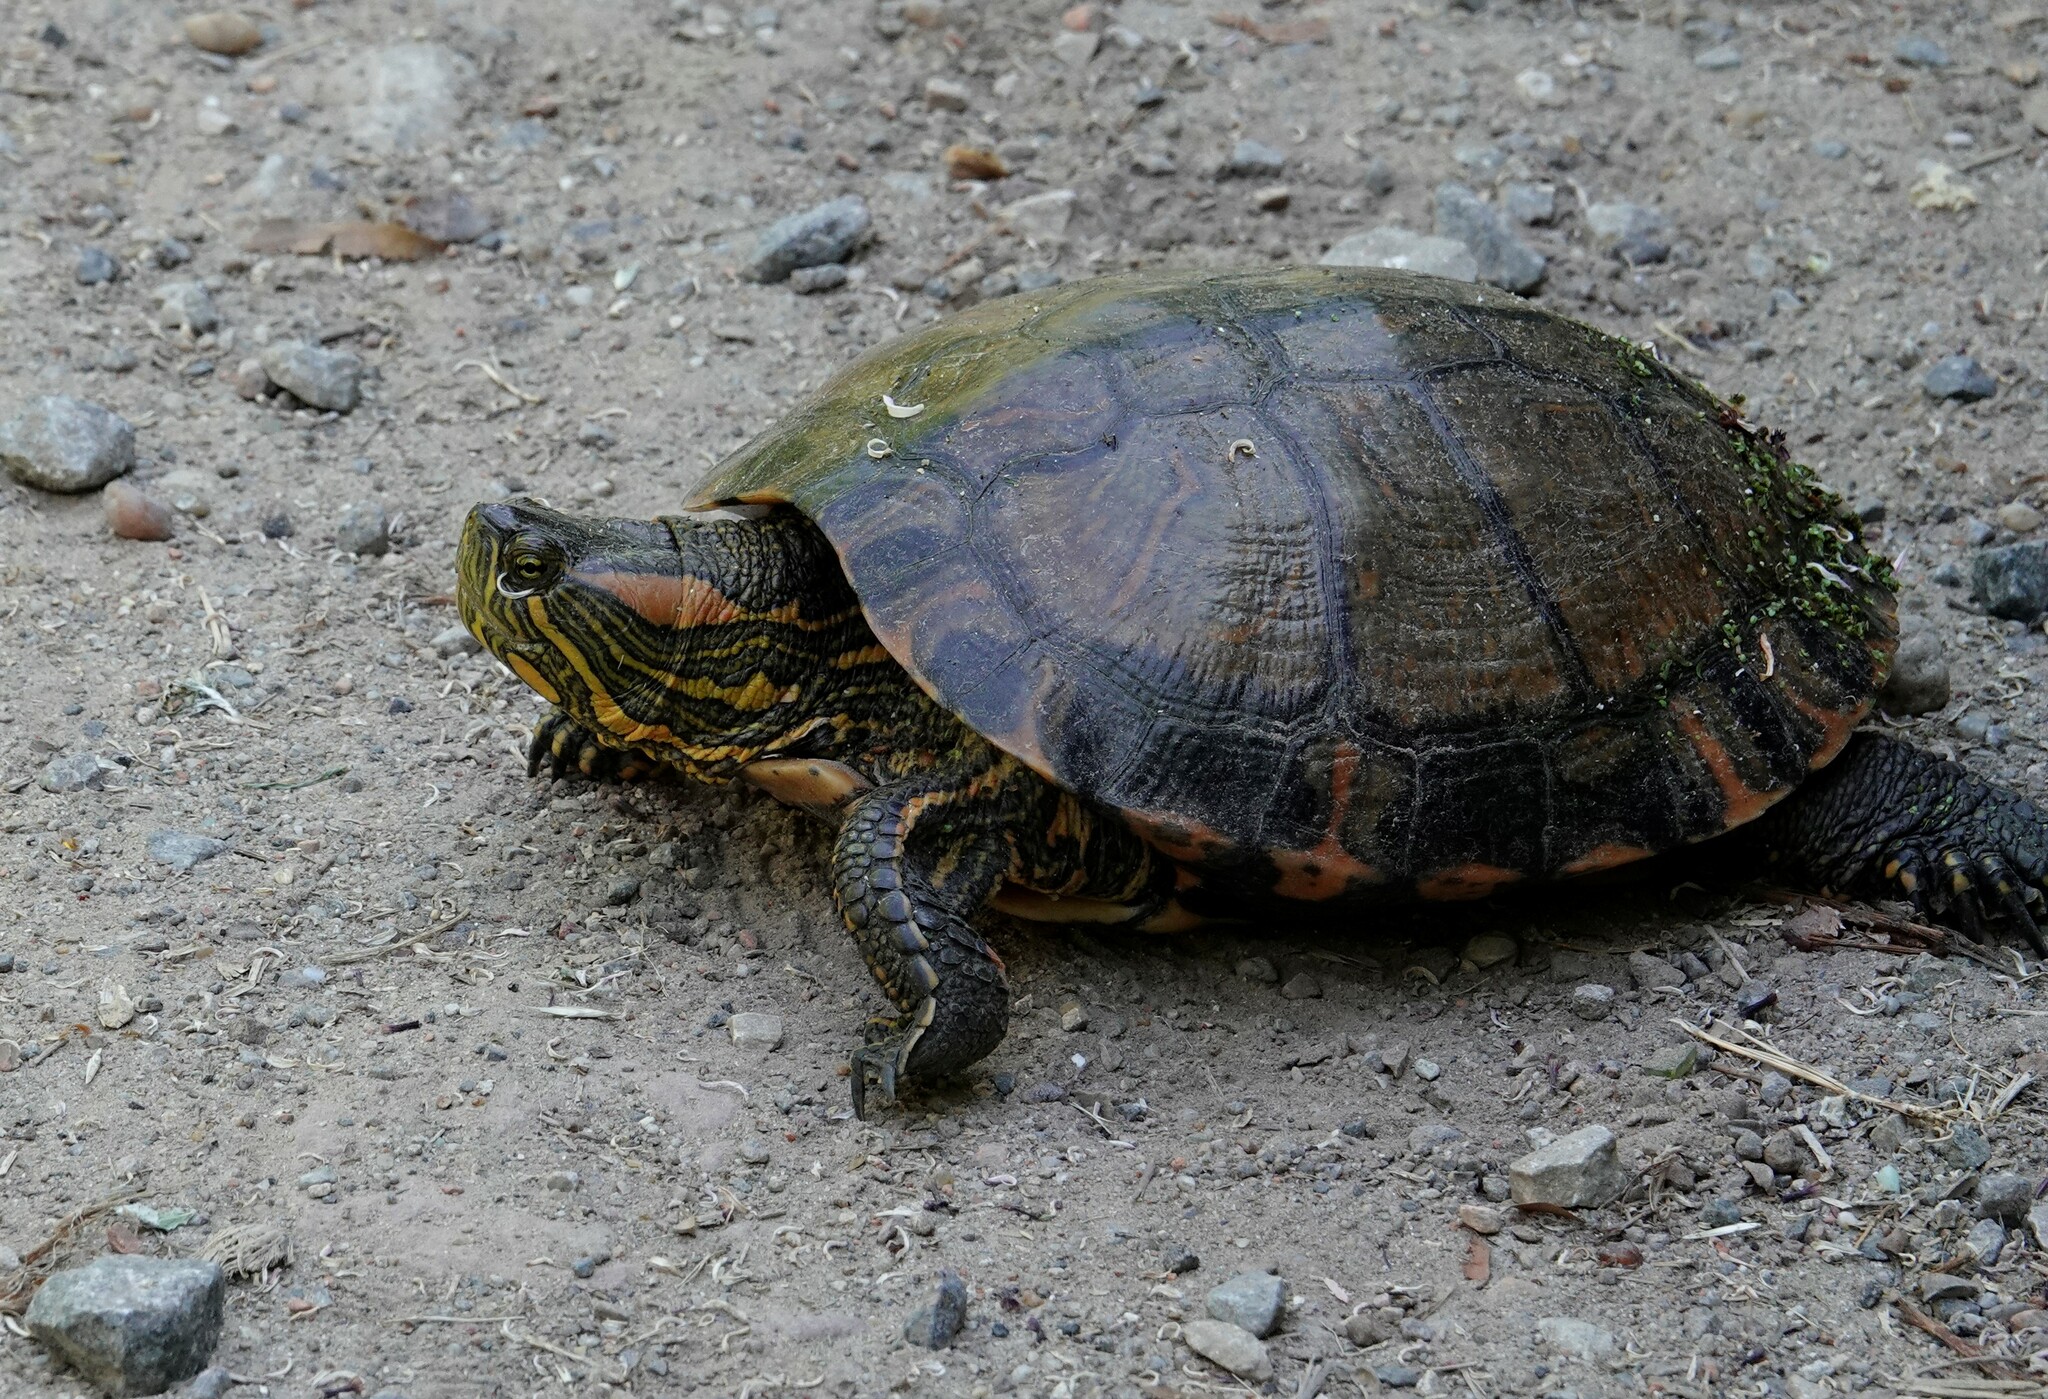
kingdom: Animalia
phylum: Chordata
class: Testudines
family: Emydidae
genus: Trachemys
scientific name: Trachemys dorbigni
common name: Black-bellied slider
